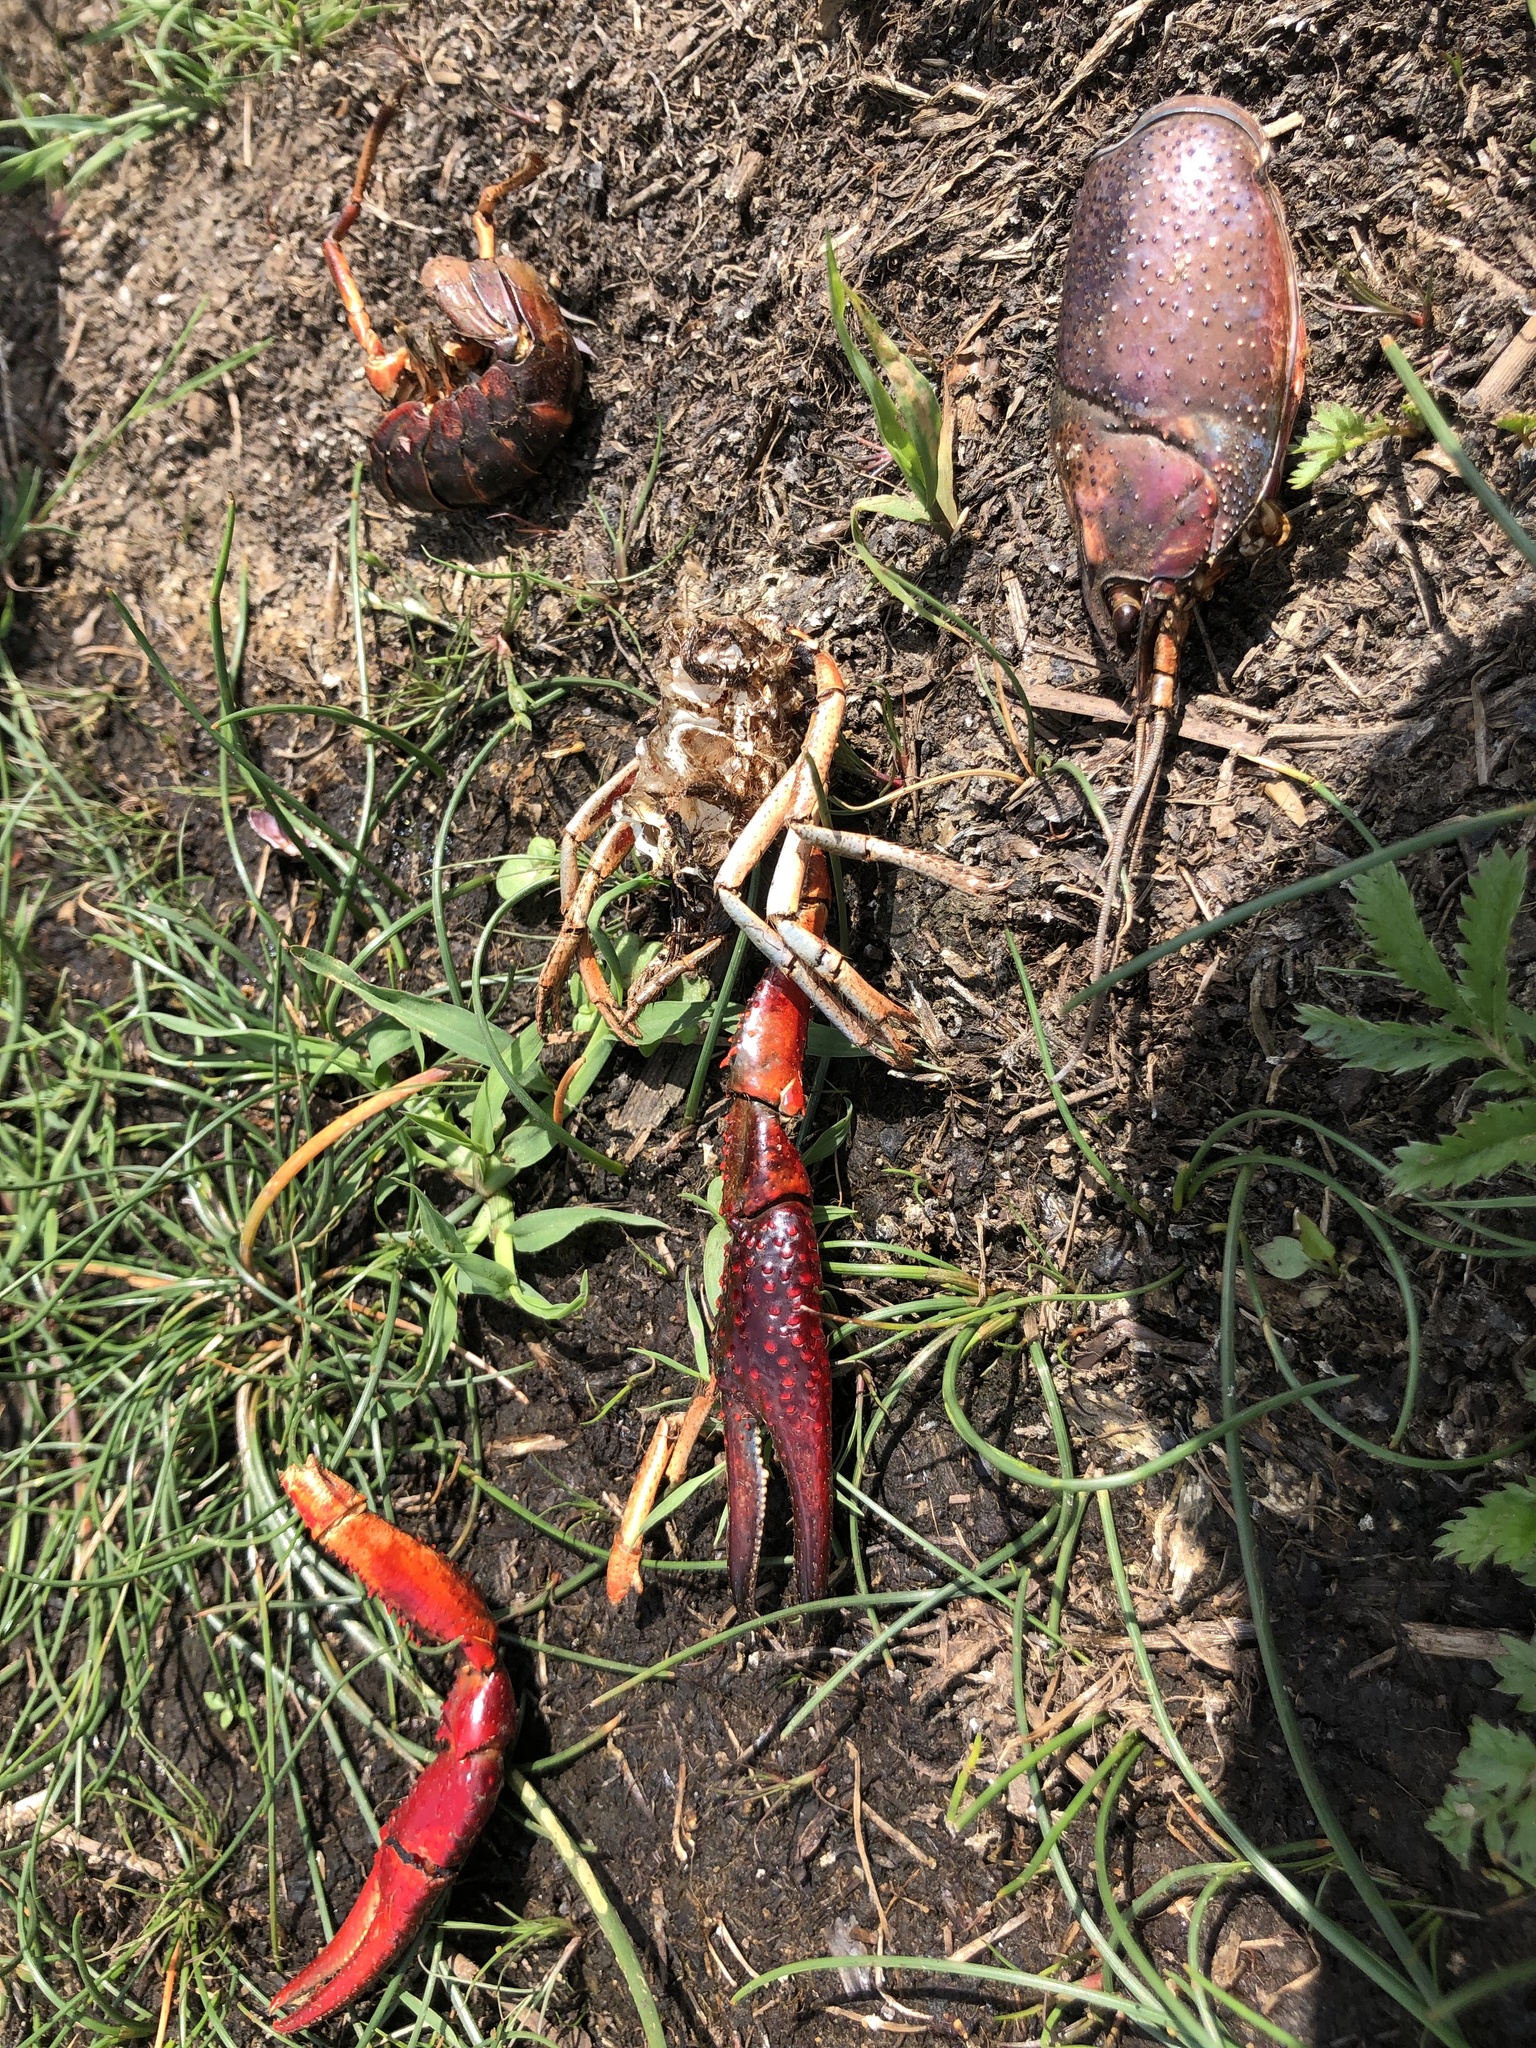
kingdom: Animalia
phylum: Arthropoda
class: Malacostraca
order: Decapoda
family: Cambaridae
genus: Procambarus
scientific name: Procambarus clarkii
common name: Red swamp crayfish
